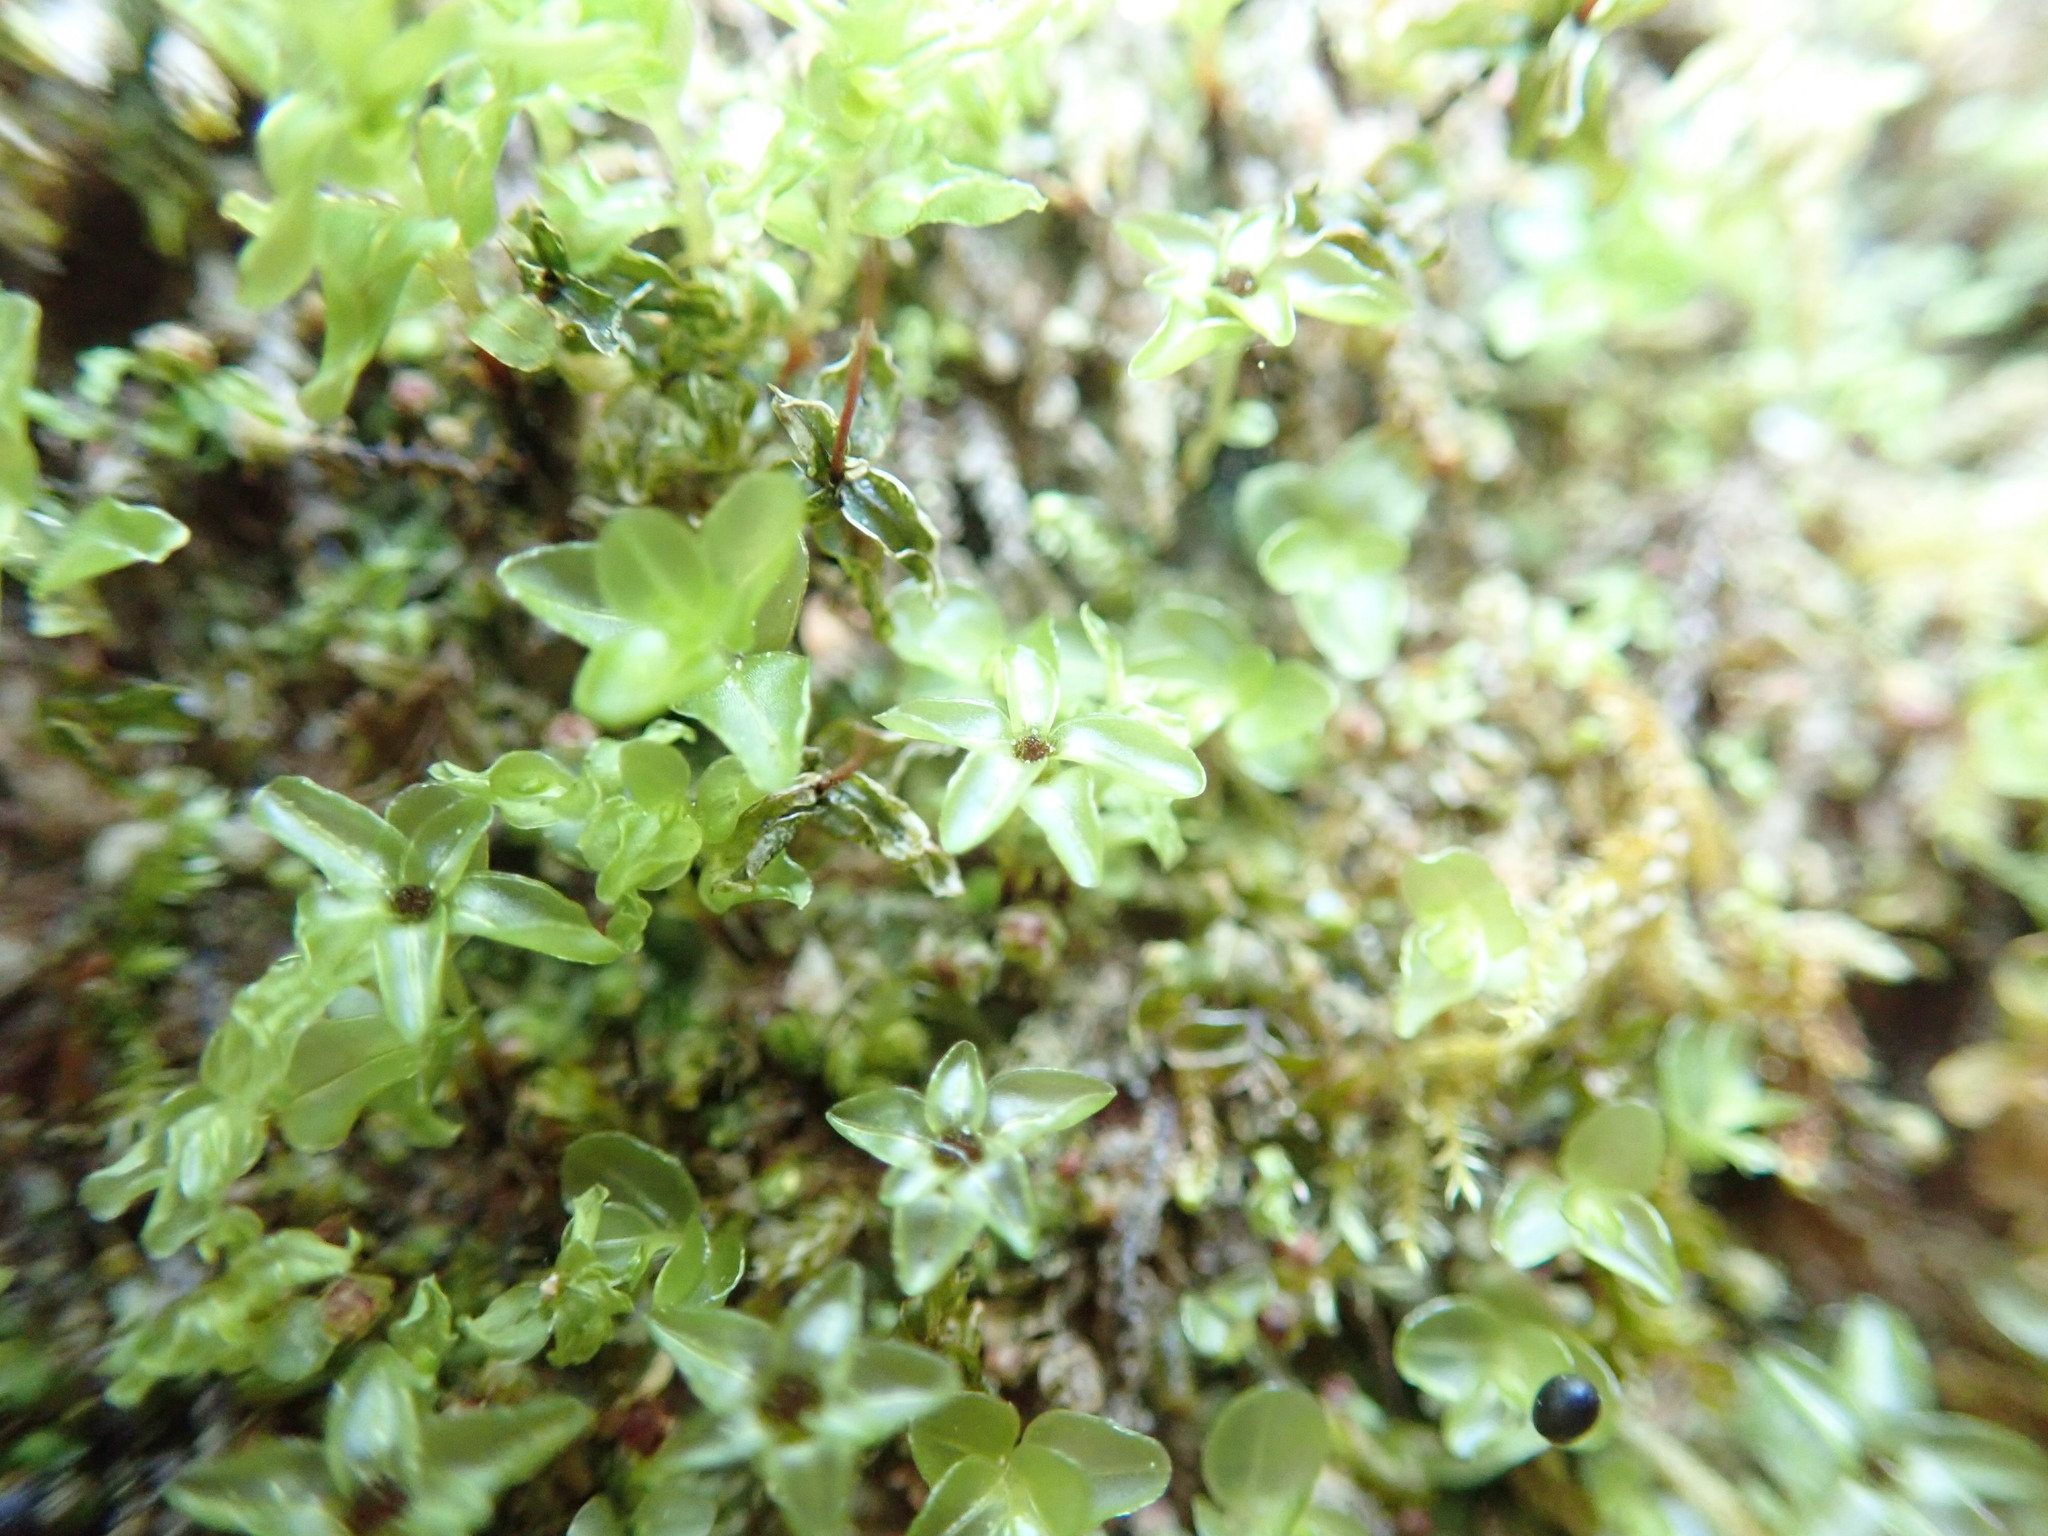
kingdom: Plantae
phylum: Bryophyta
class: Bryopsida
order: Bryales
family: Mniaceae
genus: Rhizomnium
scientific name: Rhizomnium glabrescens
